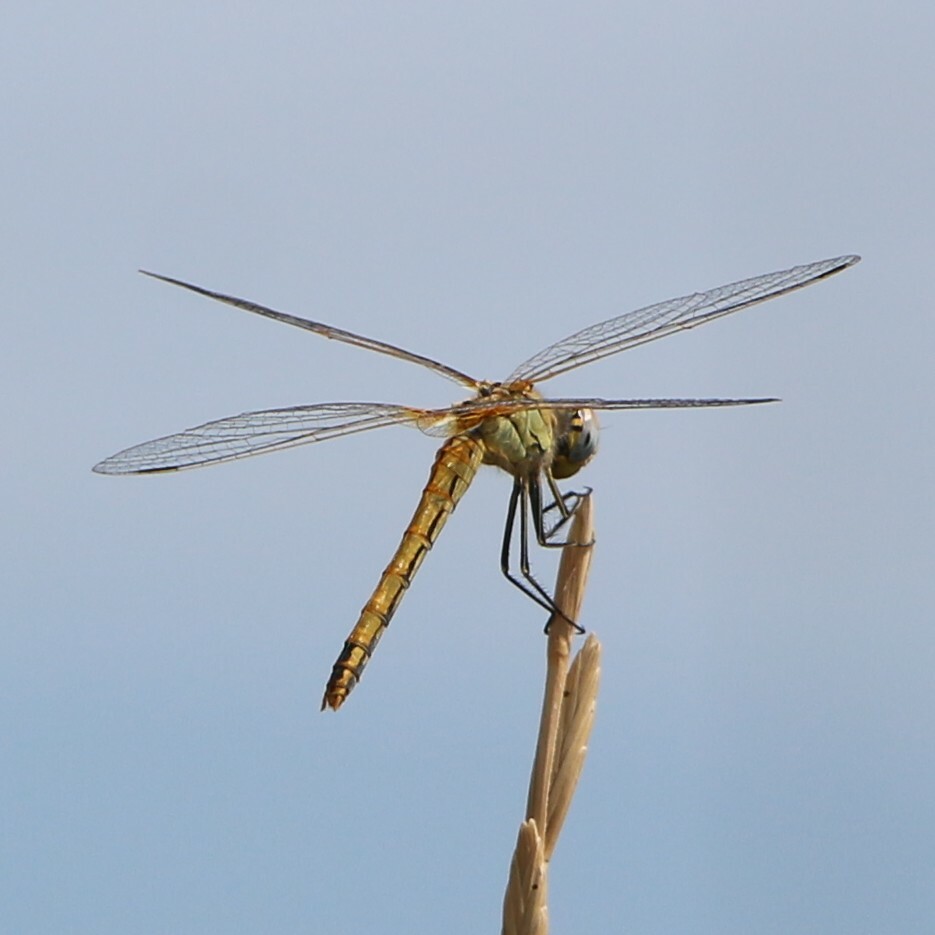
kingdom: Animalia
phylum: Arthropoda
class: Insecta
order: Odonata
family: Libellulidae
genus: Sympetrum
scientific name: Sympetrum fonscolombii
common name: Red-veined darter
